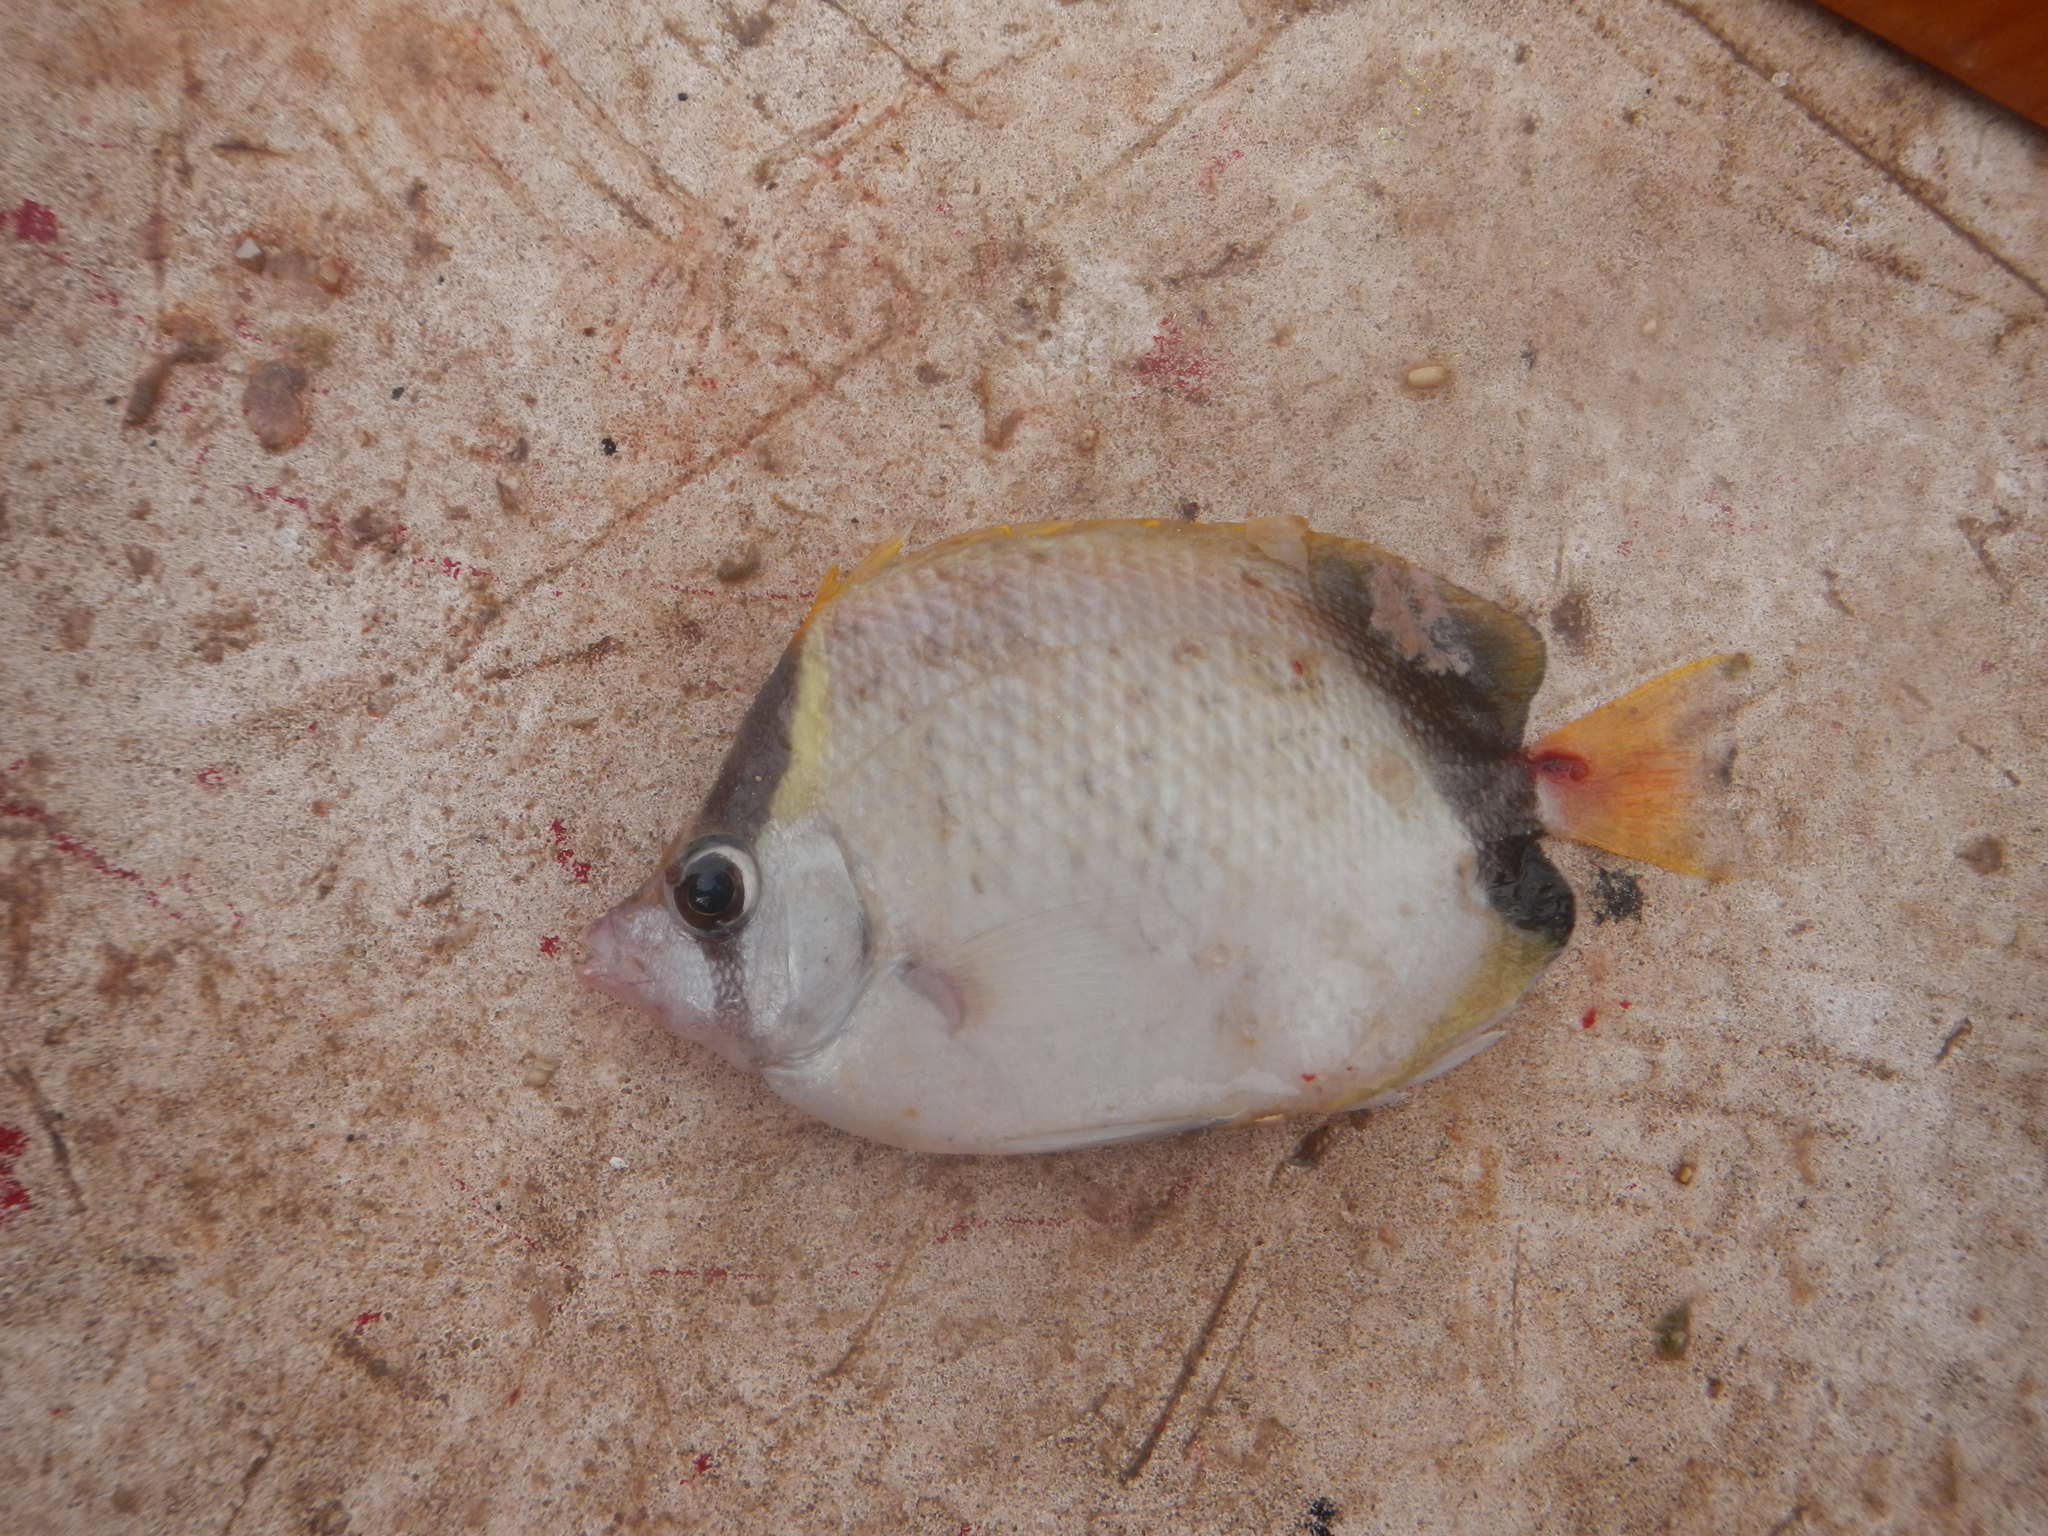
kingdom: Animalia
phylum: Chordata
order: Perciformes
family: Chaetodontidae
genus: Chaetodon
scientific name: Chaetodon sedentarius
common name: Reef butterflyfish
